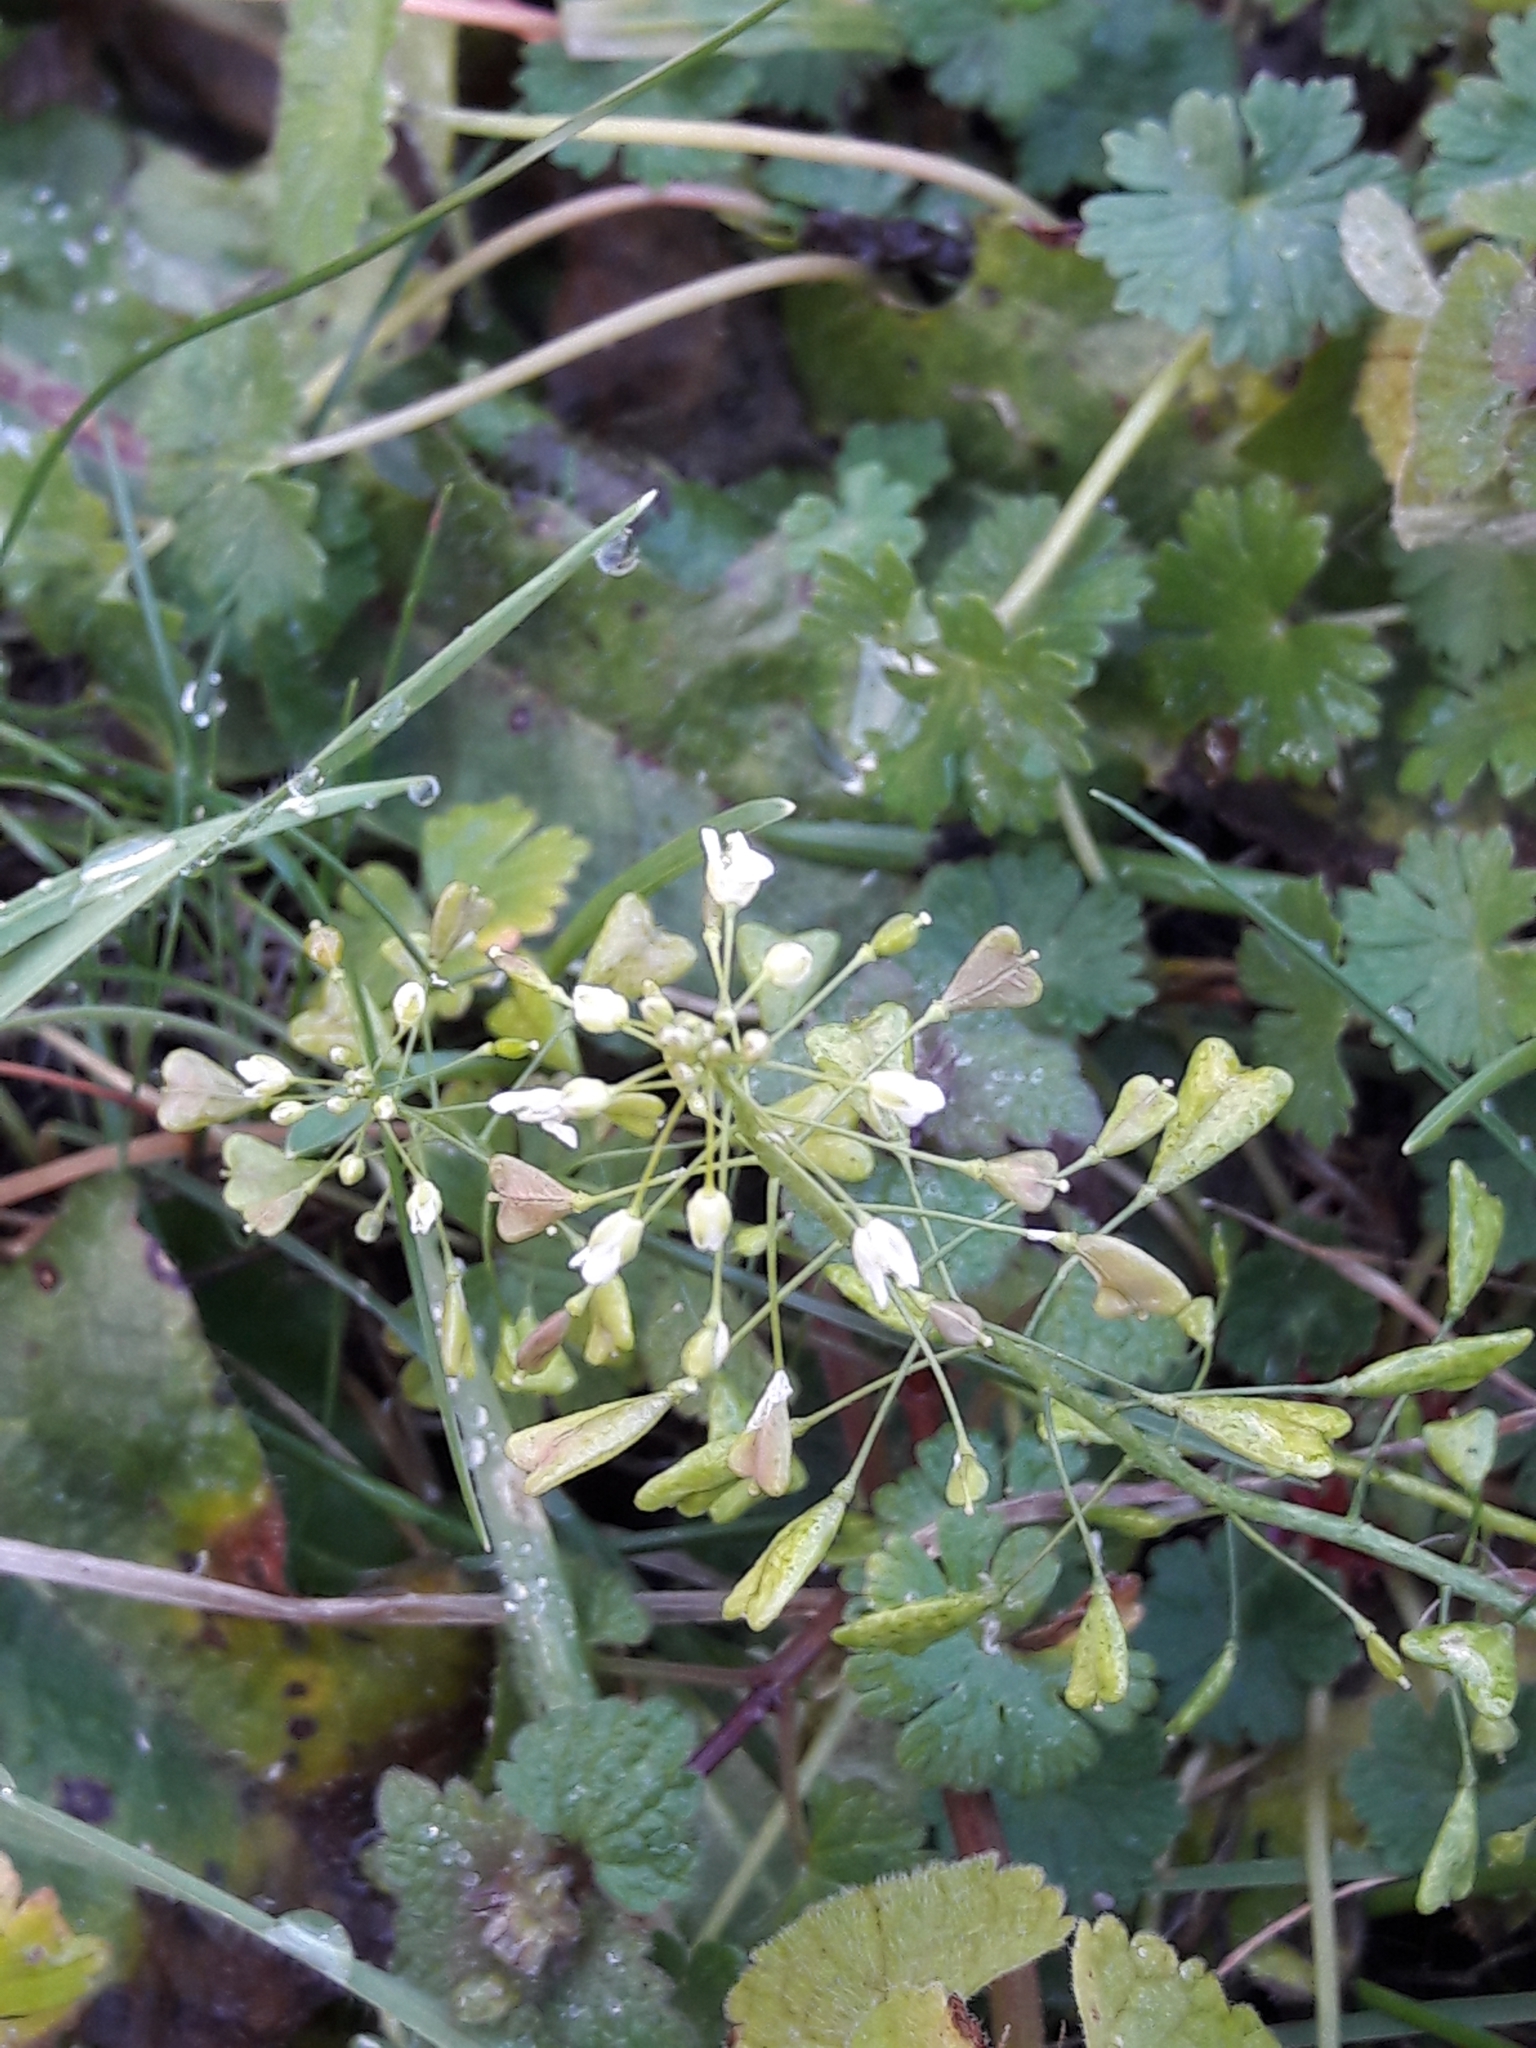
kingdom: Plantae
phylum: Tracheophyta
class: Magnoliopsida
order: Brassicales
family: Brassicaceae
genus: Capsella
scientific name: Capsella bursa-pastoris
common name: Shepherd's purse
